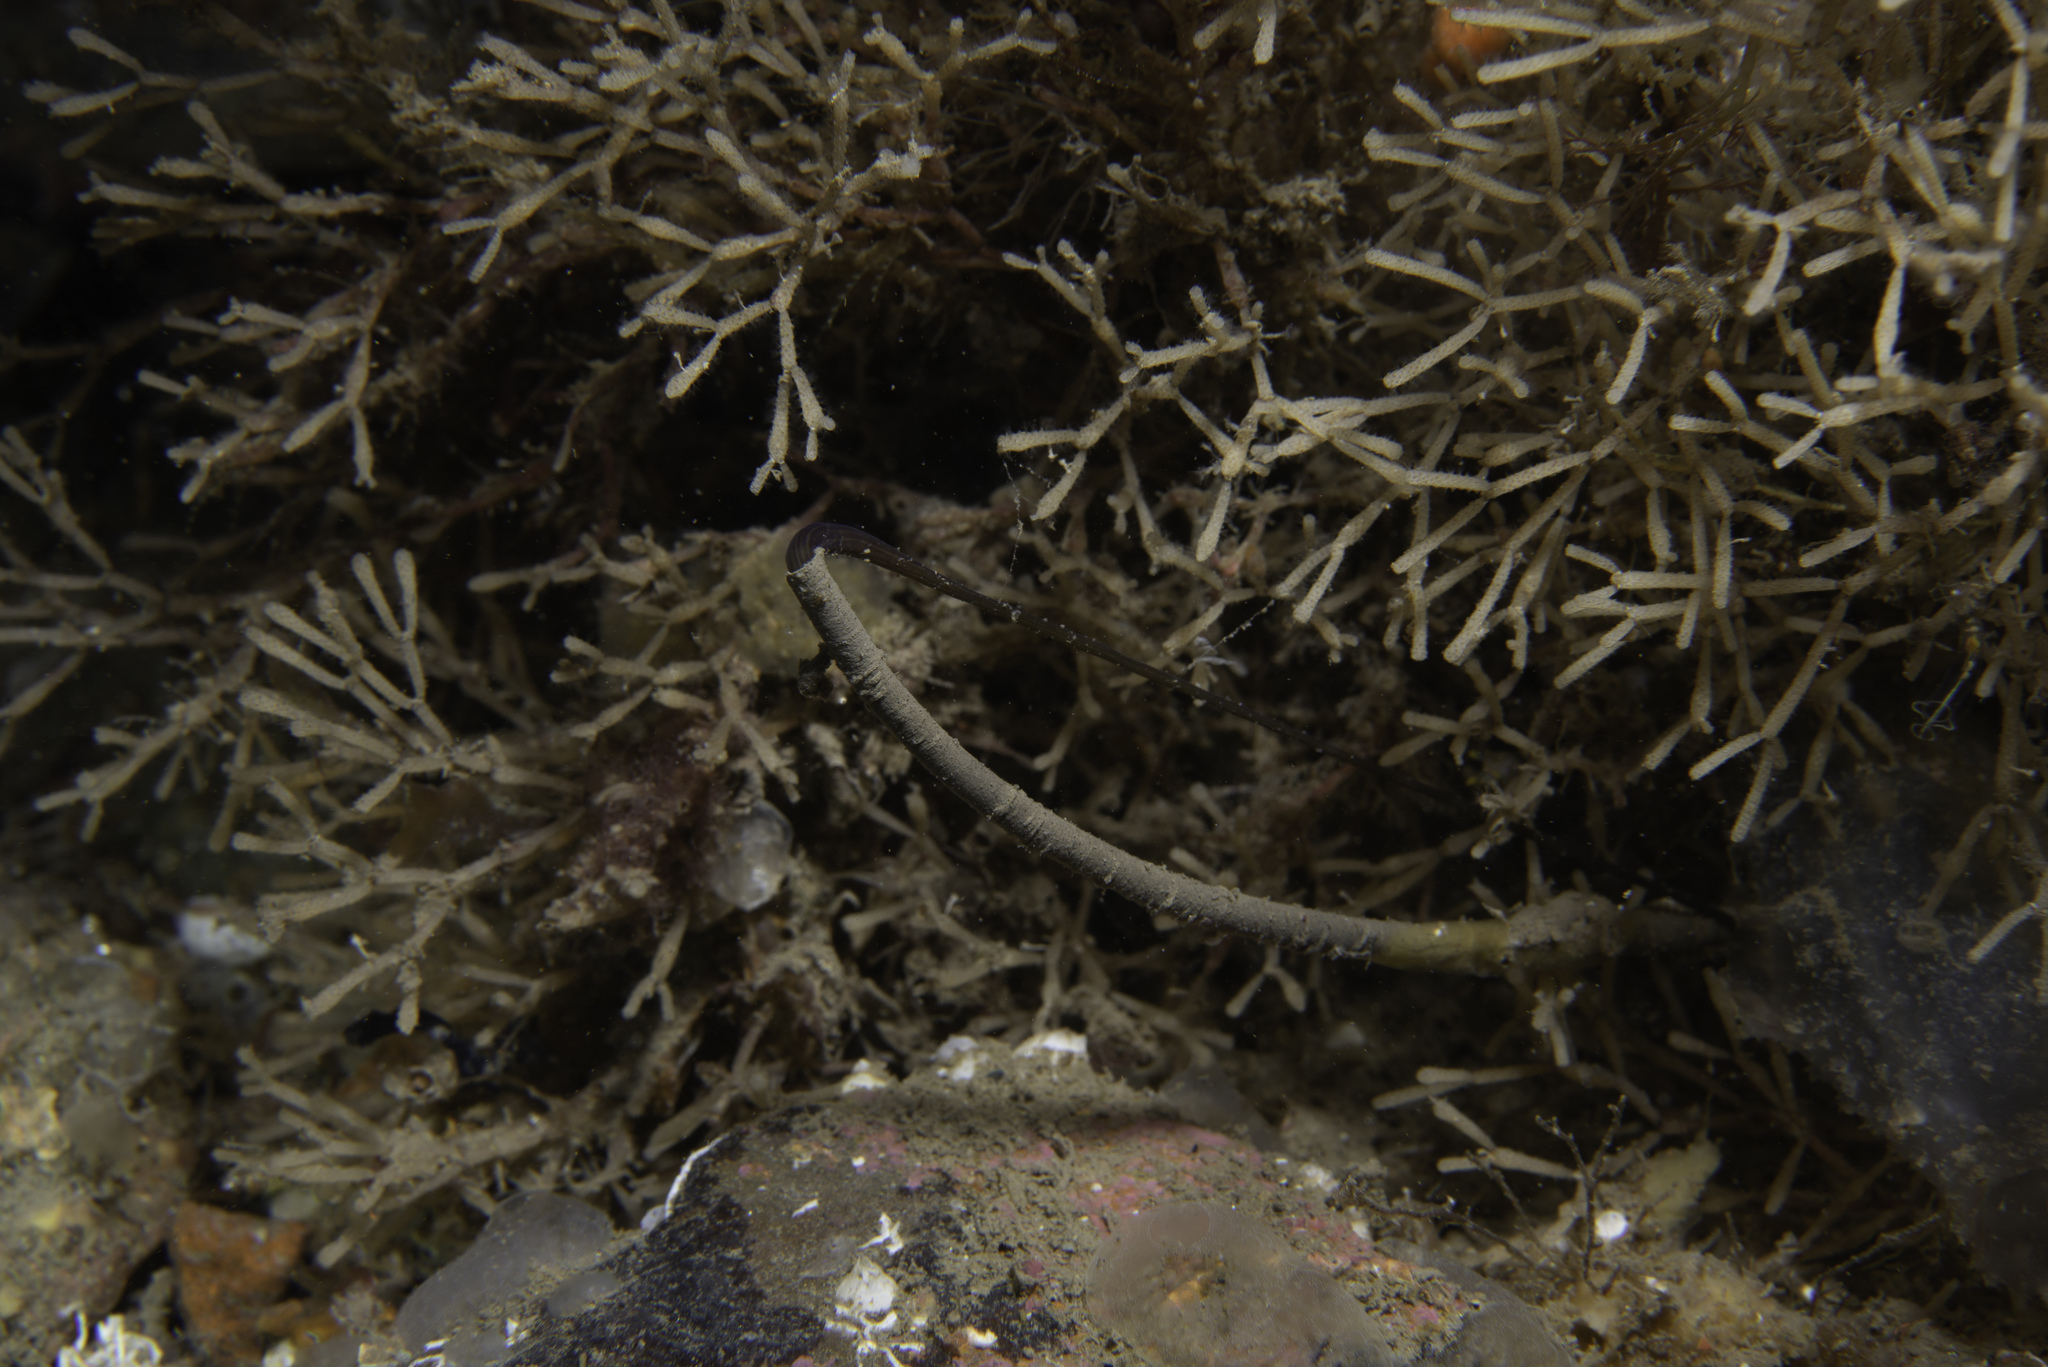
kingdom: Animalia
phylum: Nemertea
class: Pilidiophora
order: Heteronemertea
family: Lineidae
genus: Lineus
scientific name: Lineus longissimus
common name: Bootlace worm
